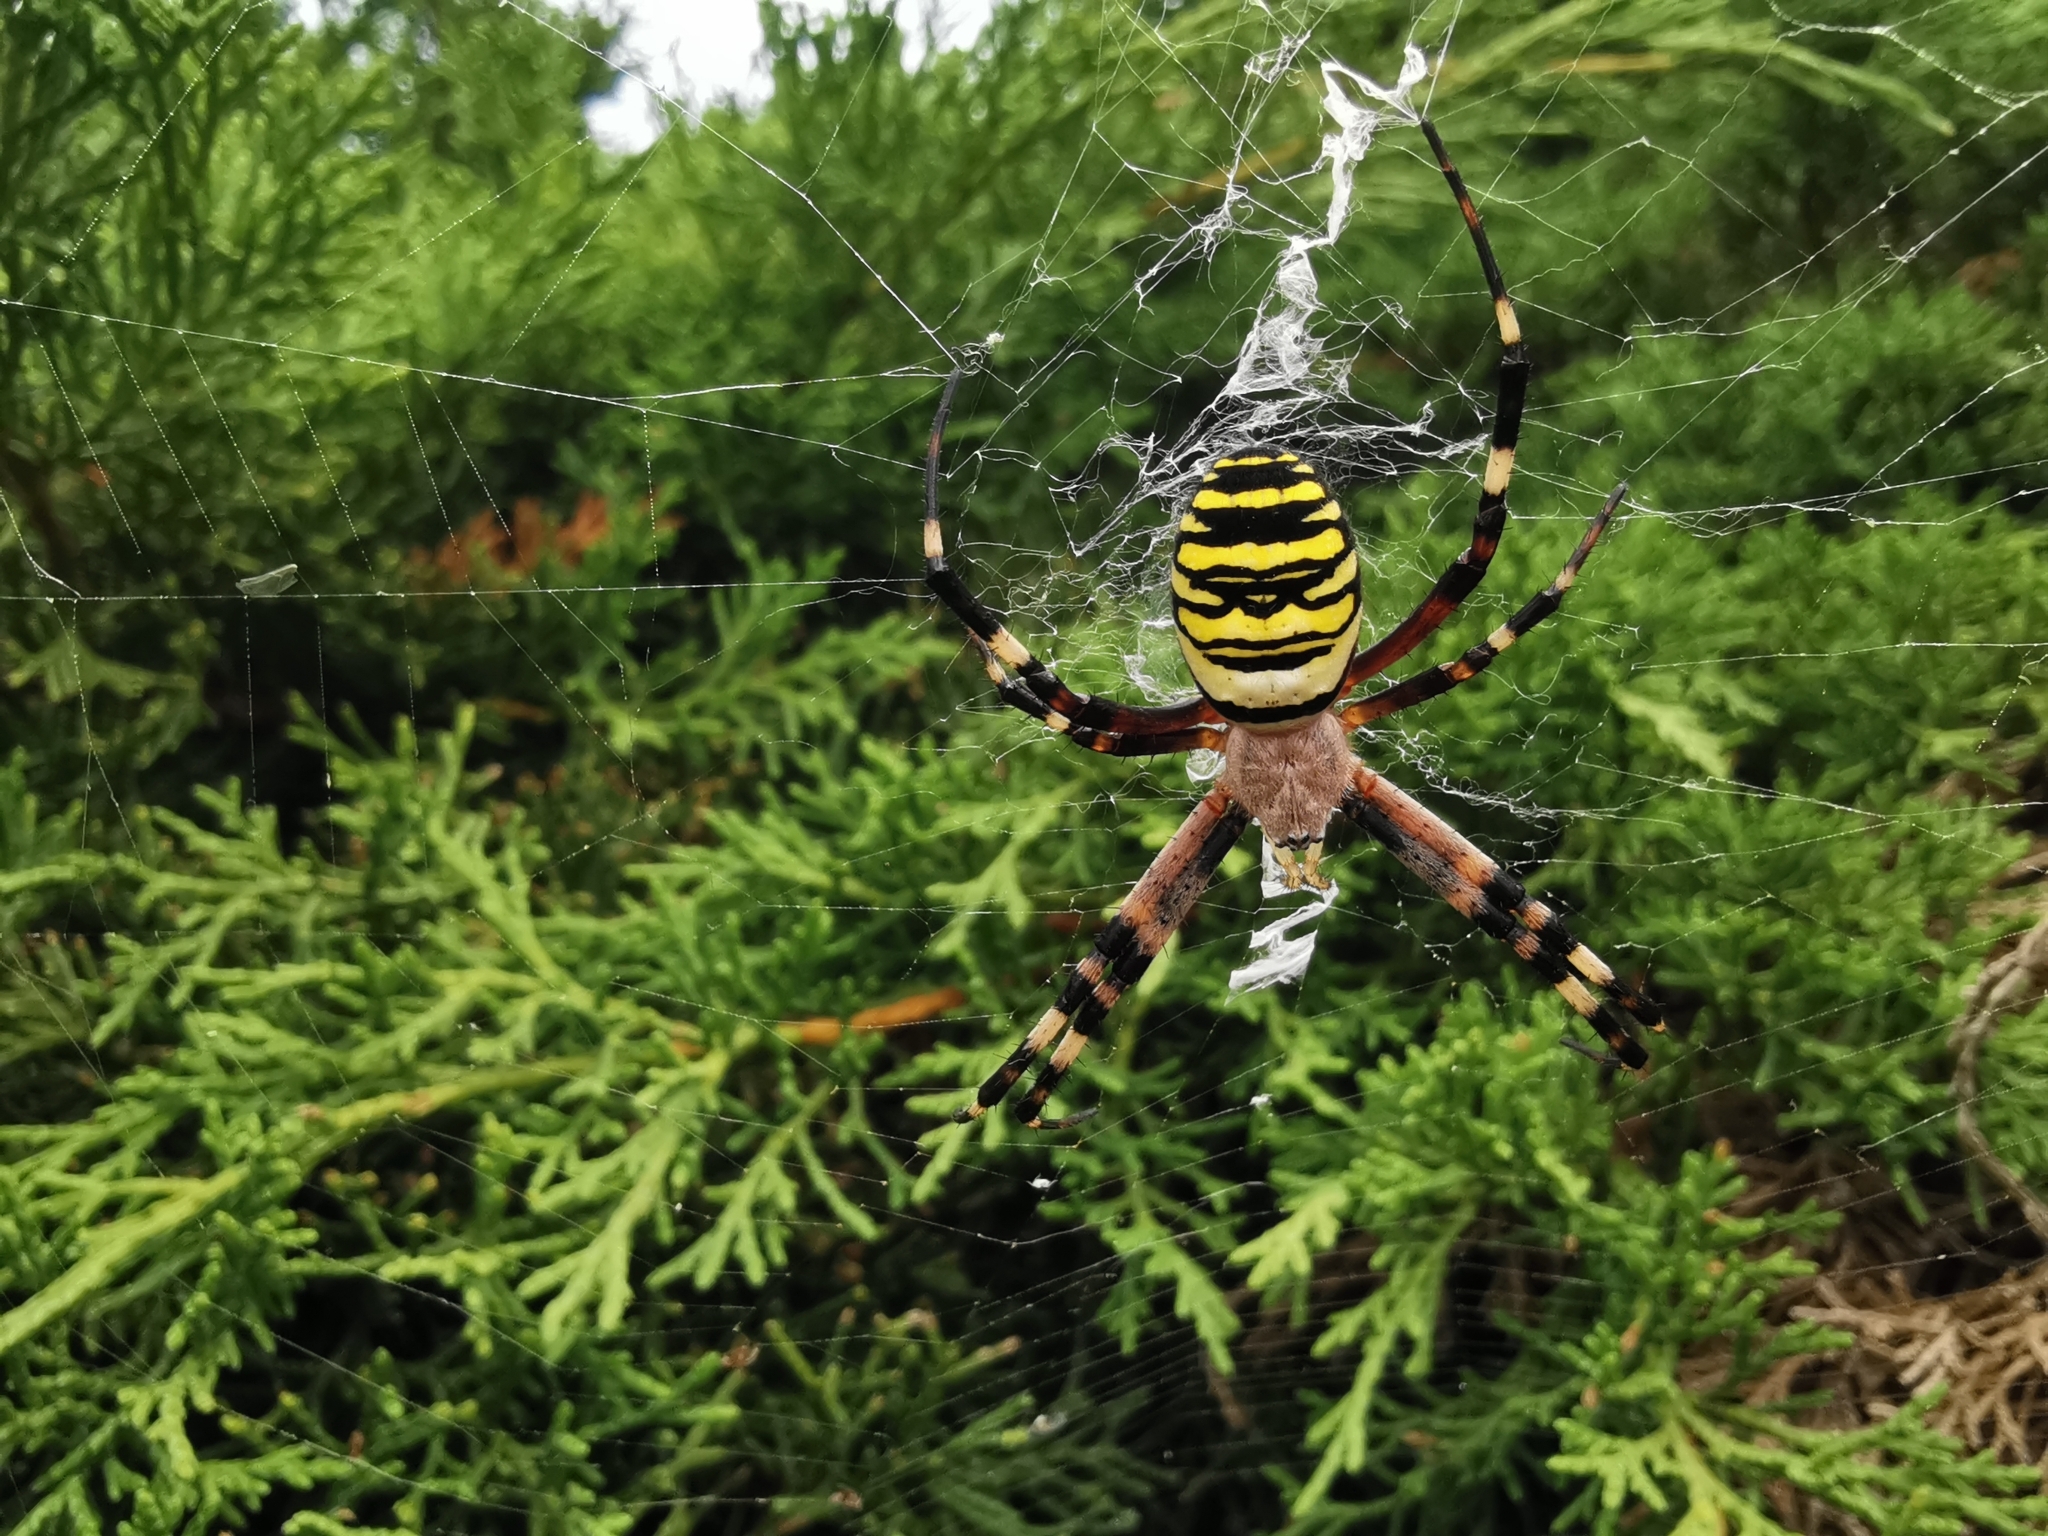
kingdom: Animalia
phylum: Arthropoda
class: Arachnida
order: Araneae
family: Araneidae
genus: Argiope
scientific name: Argiope bruennichi
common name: Wasp spider
